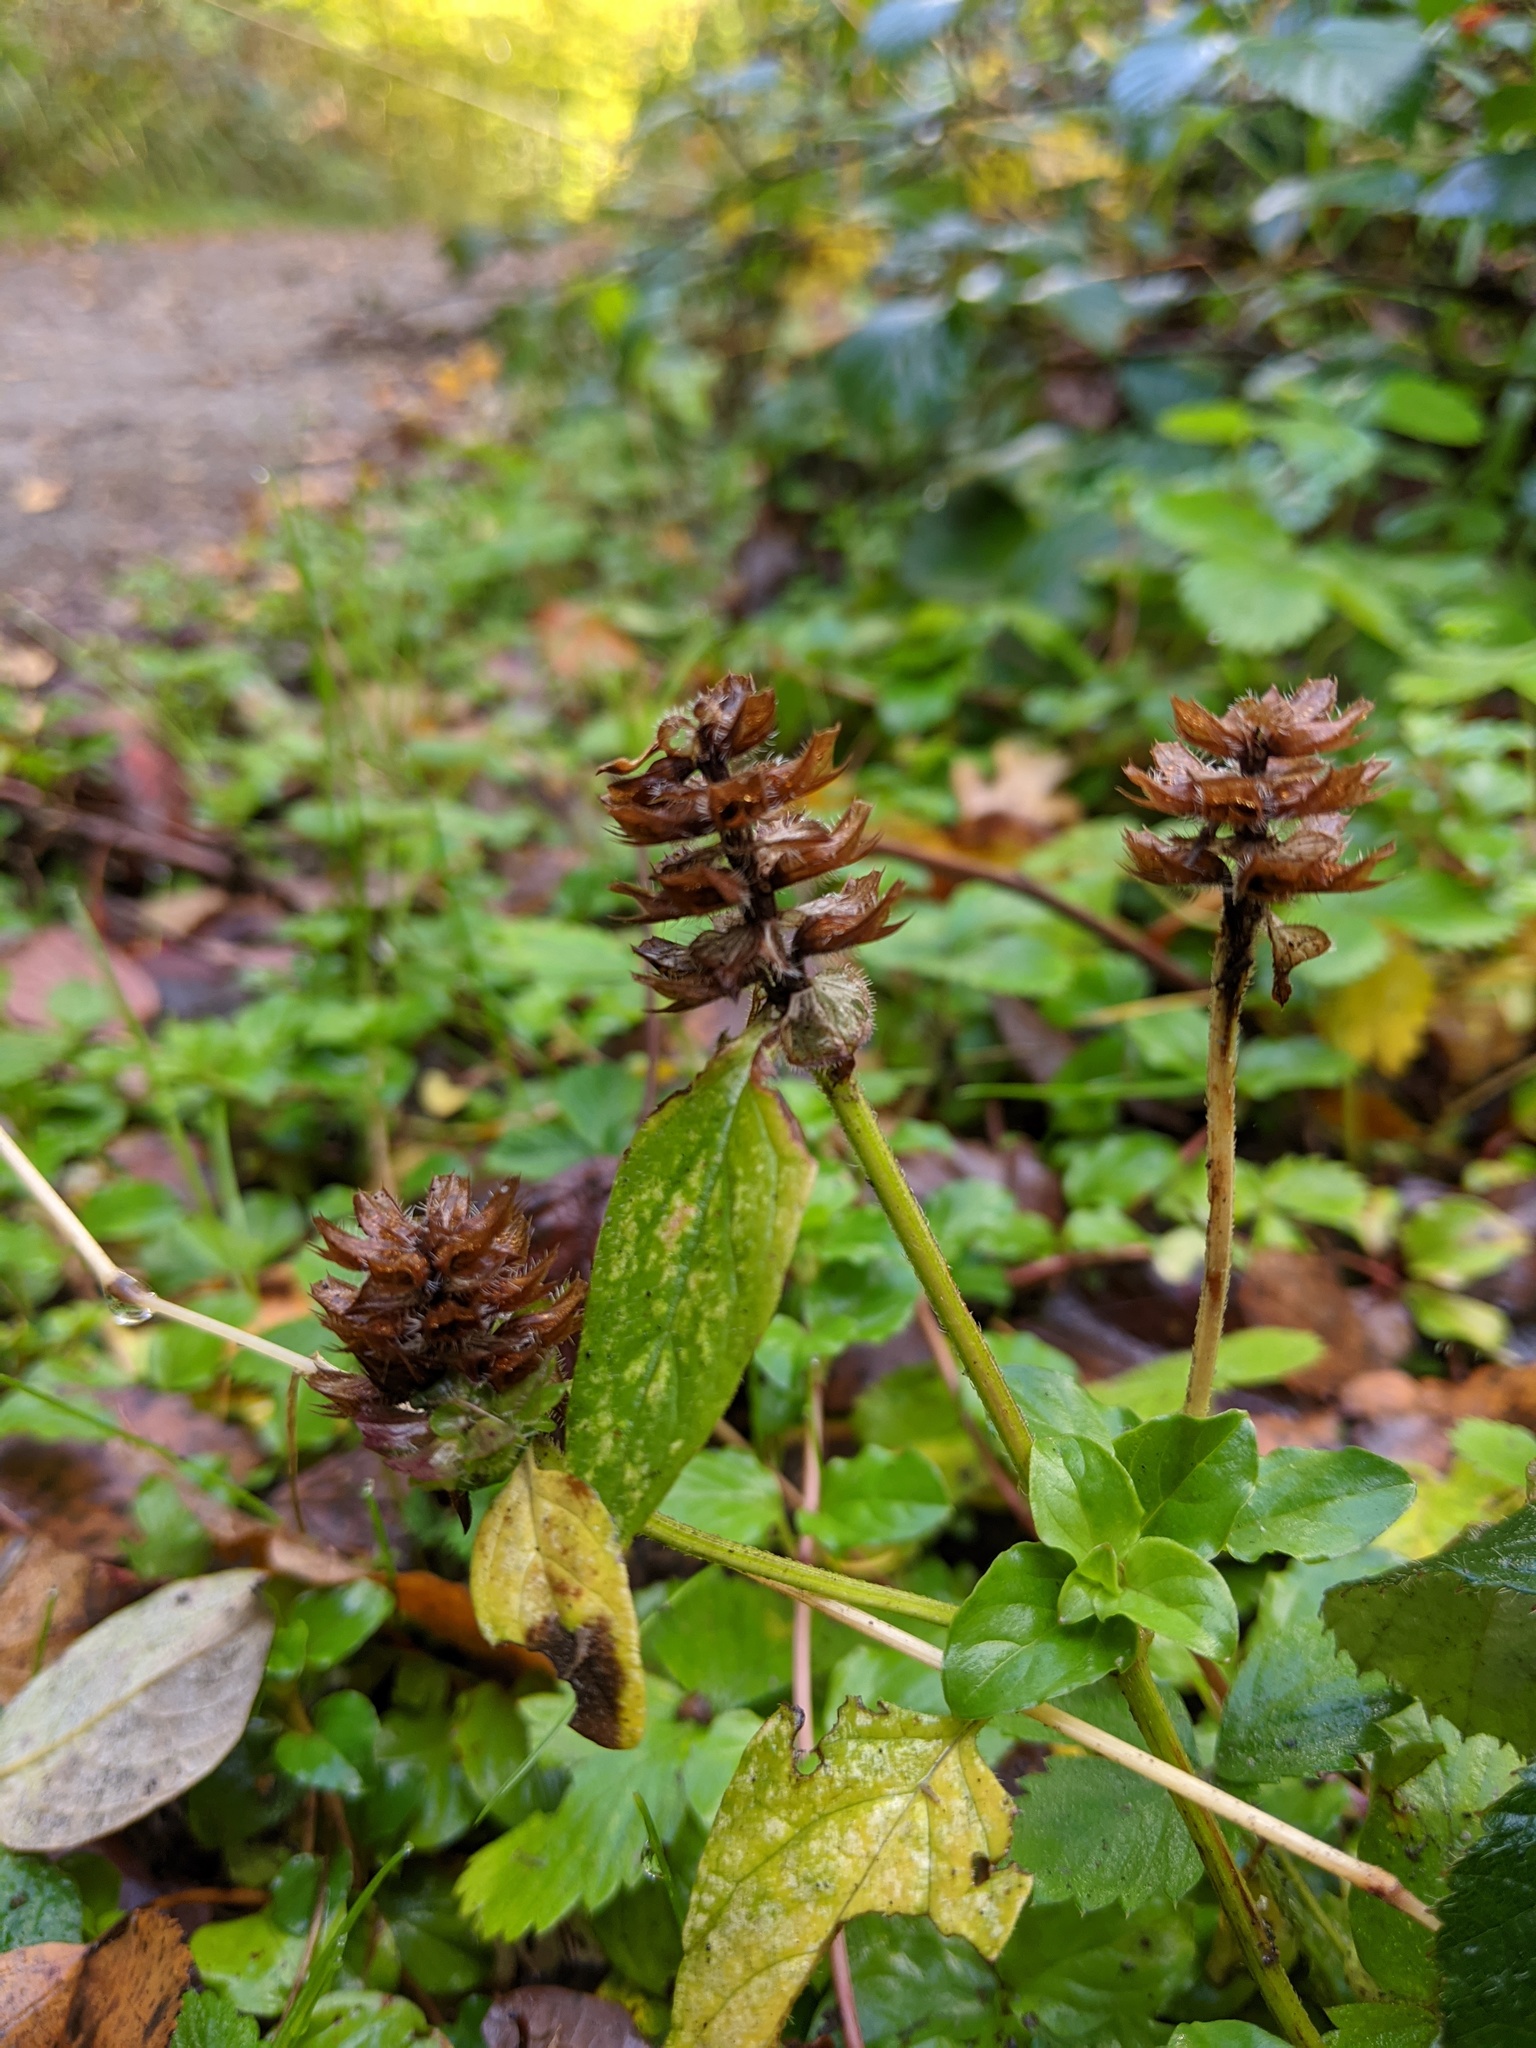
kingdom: Plantae
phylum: Tracheophyta
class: Magnoliopsida
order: Lamiales
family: Lamiaceae
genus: Prunella
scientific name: Prunella vulgaris
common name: Heal-all
